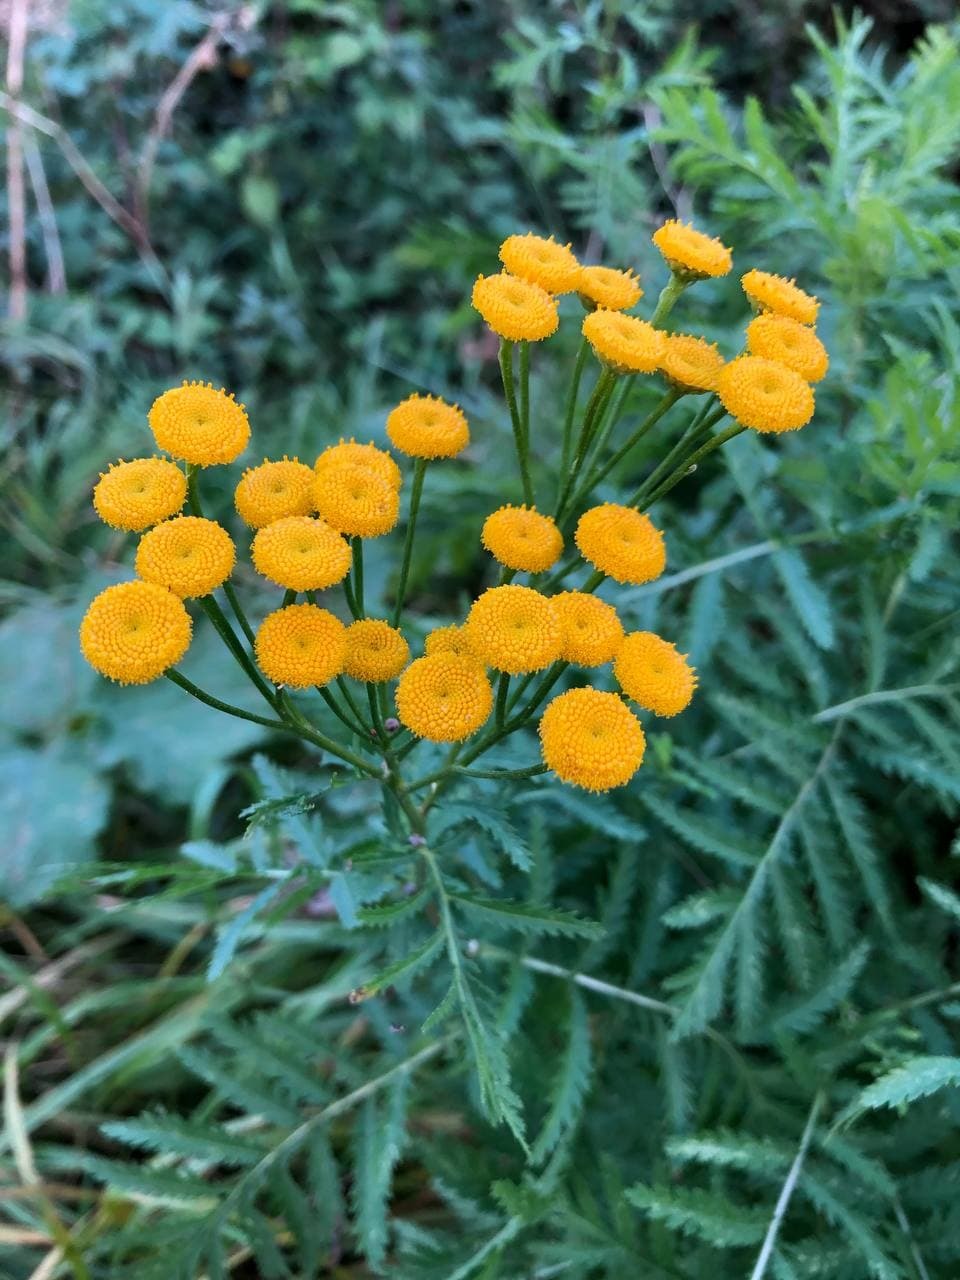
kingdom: Plantae
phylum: Tracheophyta
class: Magnoliopsida
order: Asterales
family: Asteraceae
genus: Tanacetum
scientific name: Tanacetum vulgare
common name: Common tansy
